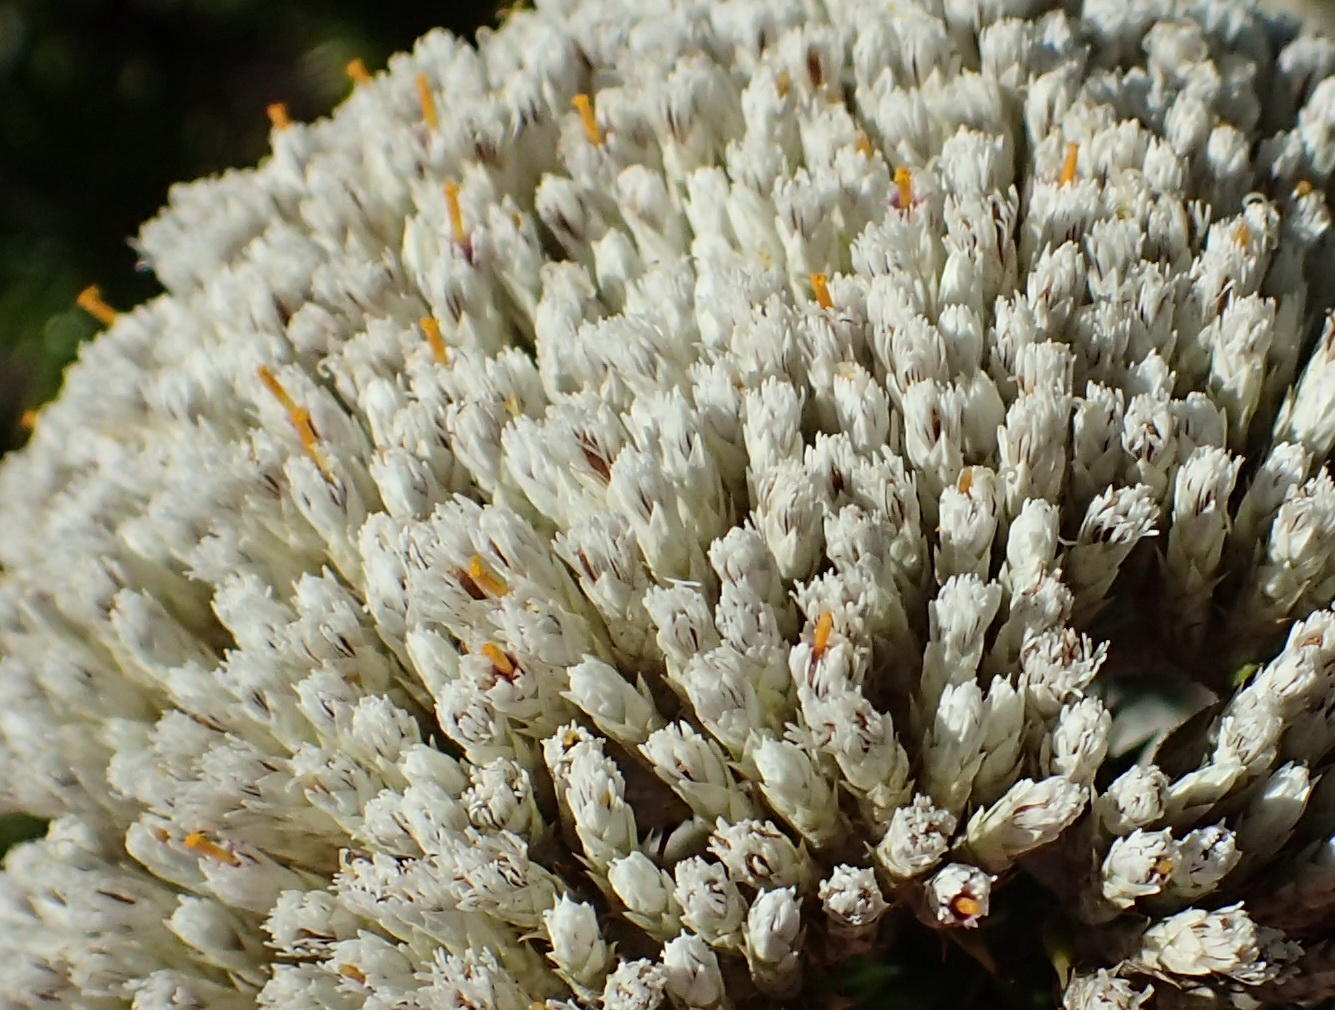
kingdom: Plantae
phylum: Tracheophyta
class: Magnoliopsida
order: Asterales
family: Asteraceae
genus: Metalasia
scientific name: Metalasia trivialis
